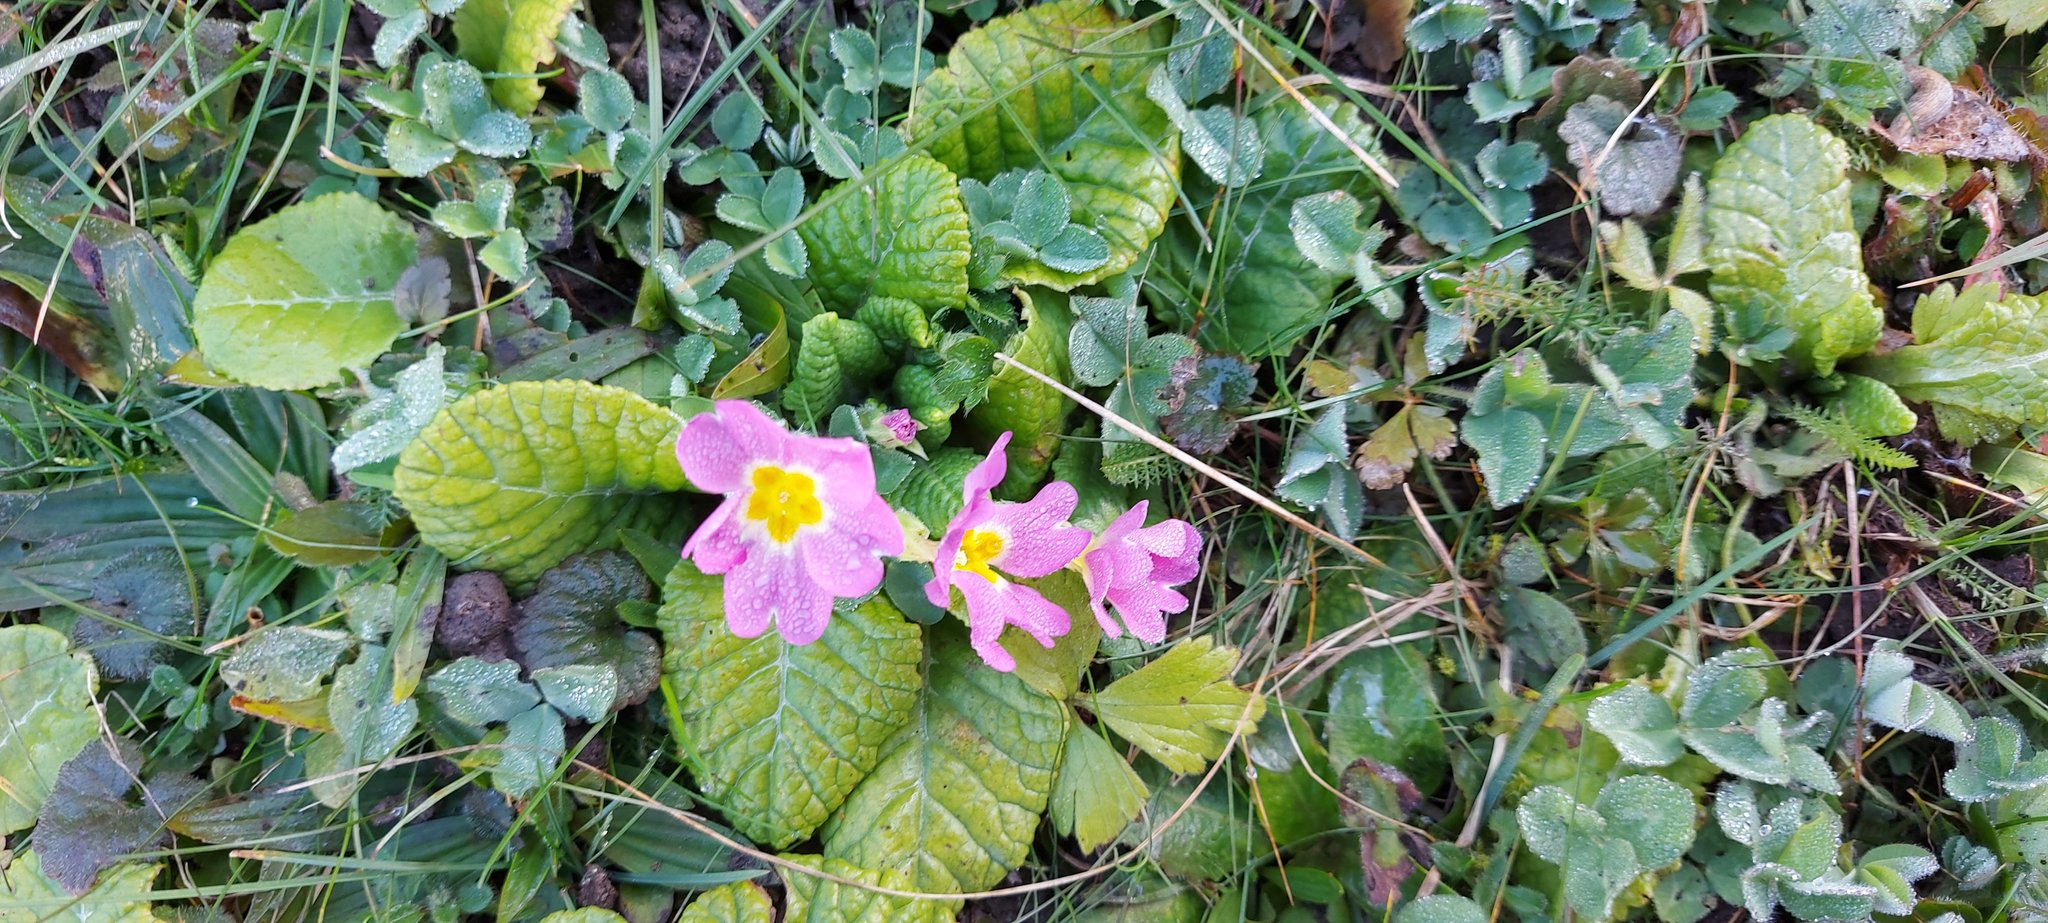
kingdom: Plantae
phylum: Tracheophyta
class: Magnoliopsida
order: Ericales
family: Primulaceae
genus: Primula
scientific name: Primula vulgaris
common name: Primrose
